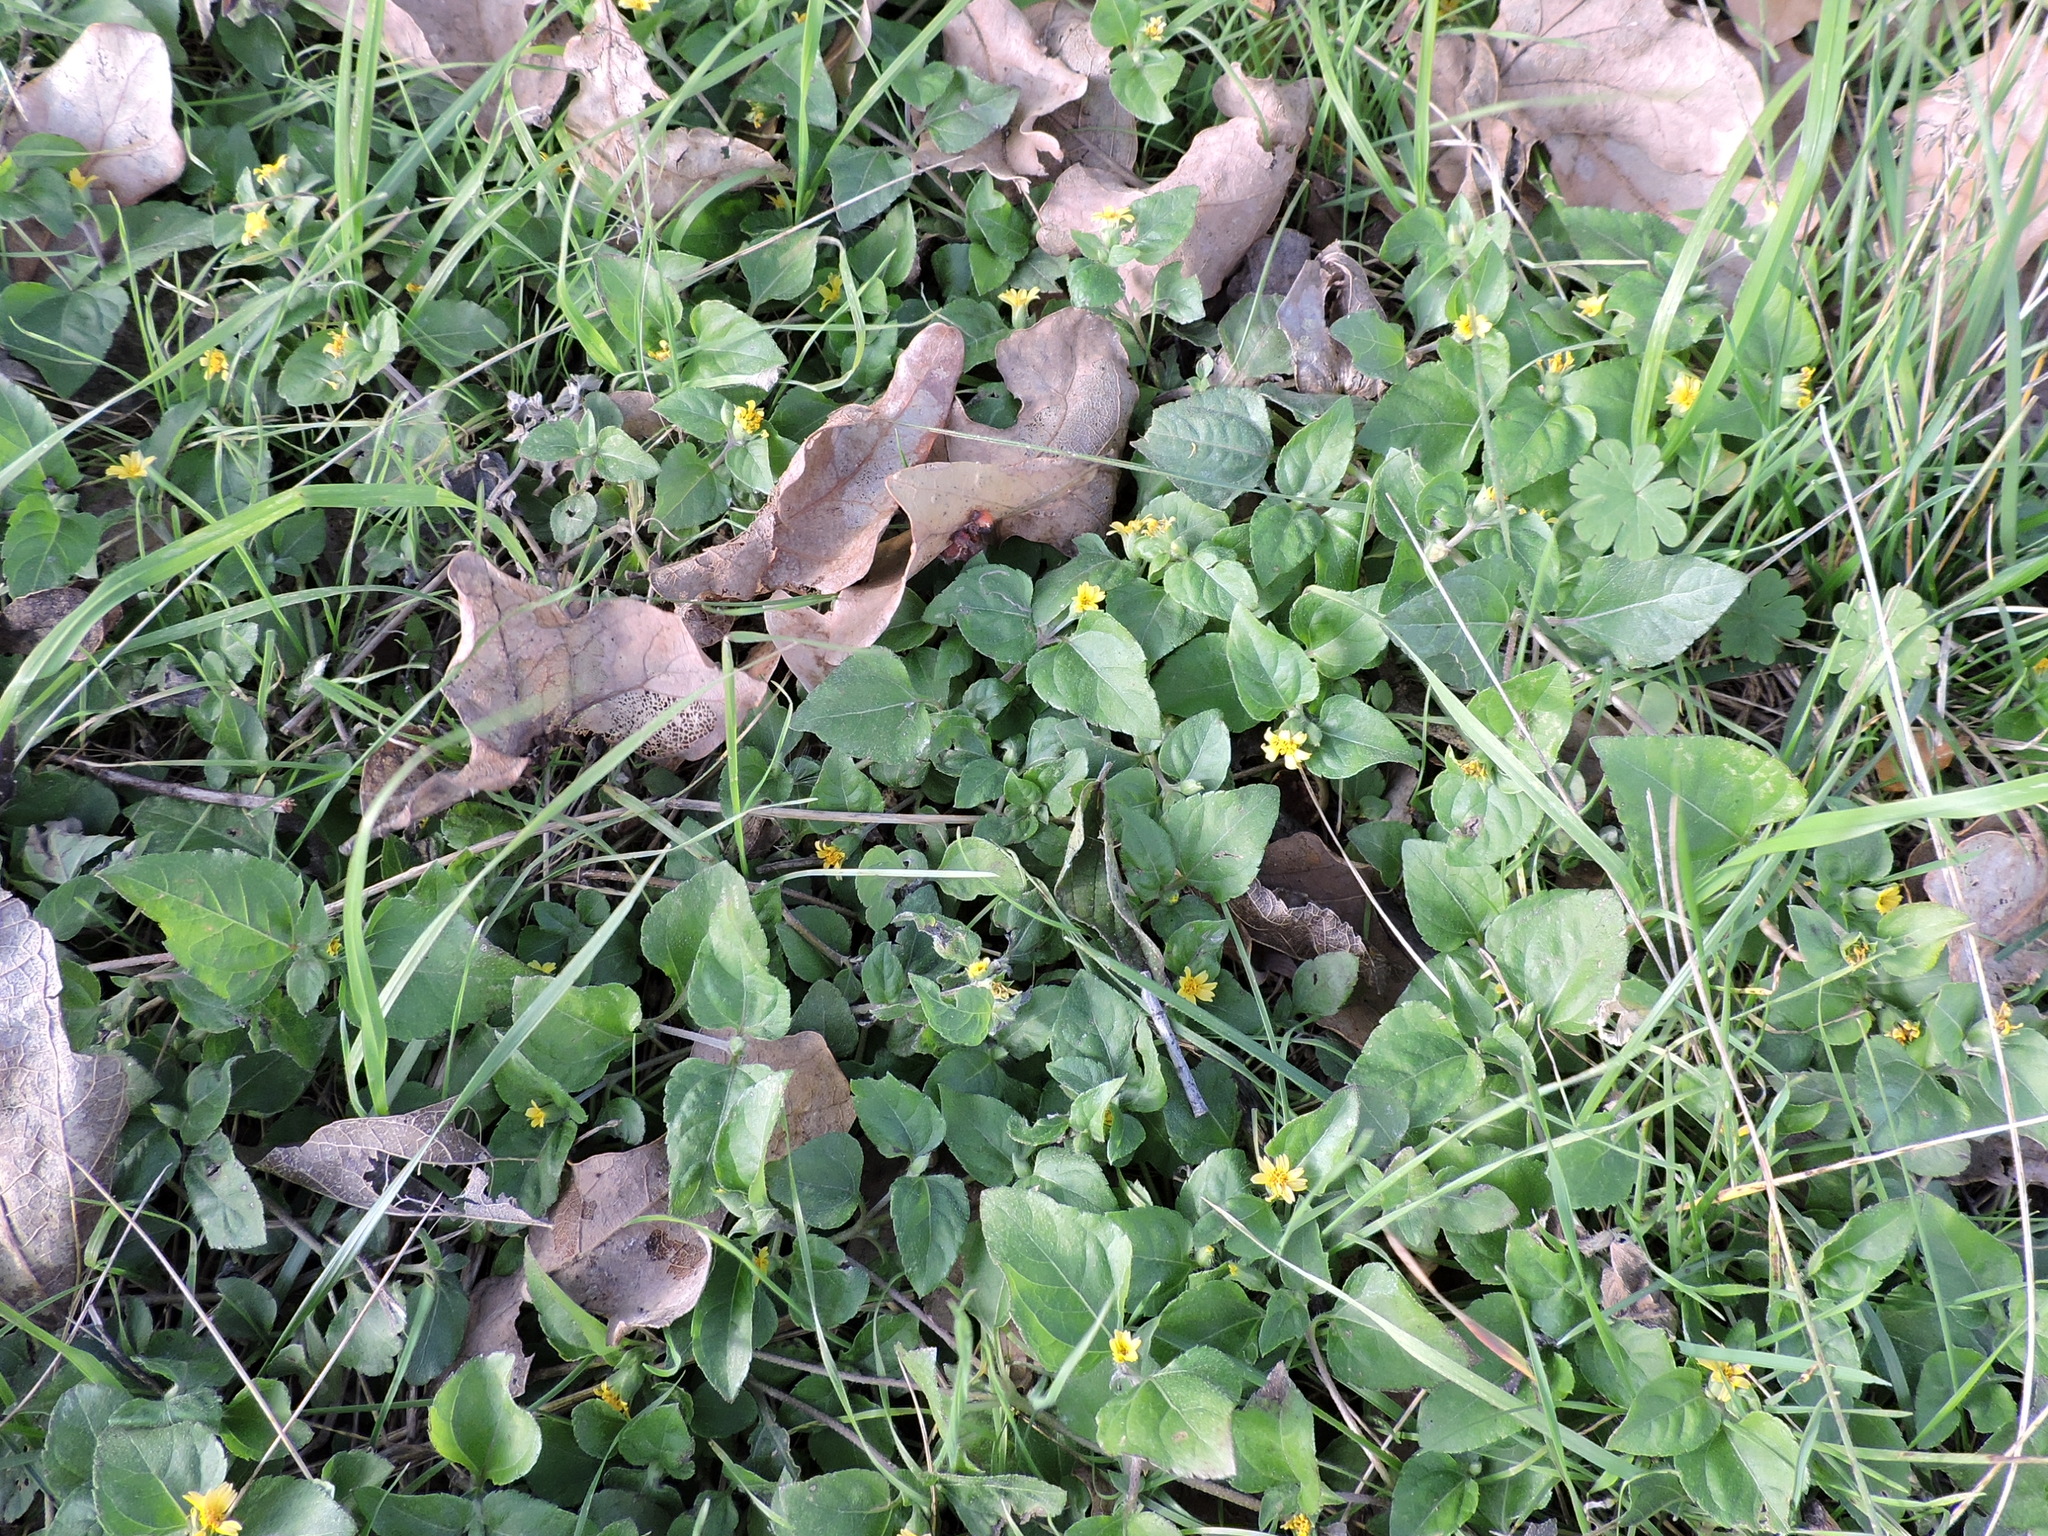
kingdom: Plantae
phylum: Tracheophyta
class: Magnoliopsida
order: Asterales
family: Asteraceae
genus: Calyptocarpus
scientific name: Calyptocarpus vialis
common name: Straggler daisy
